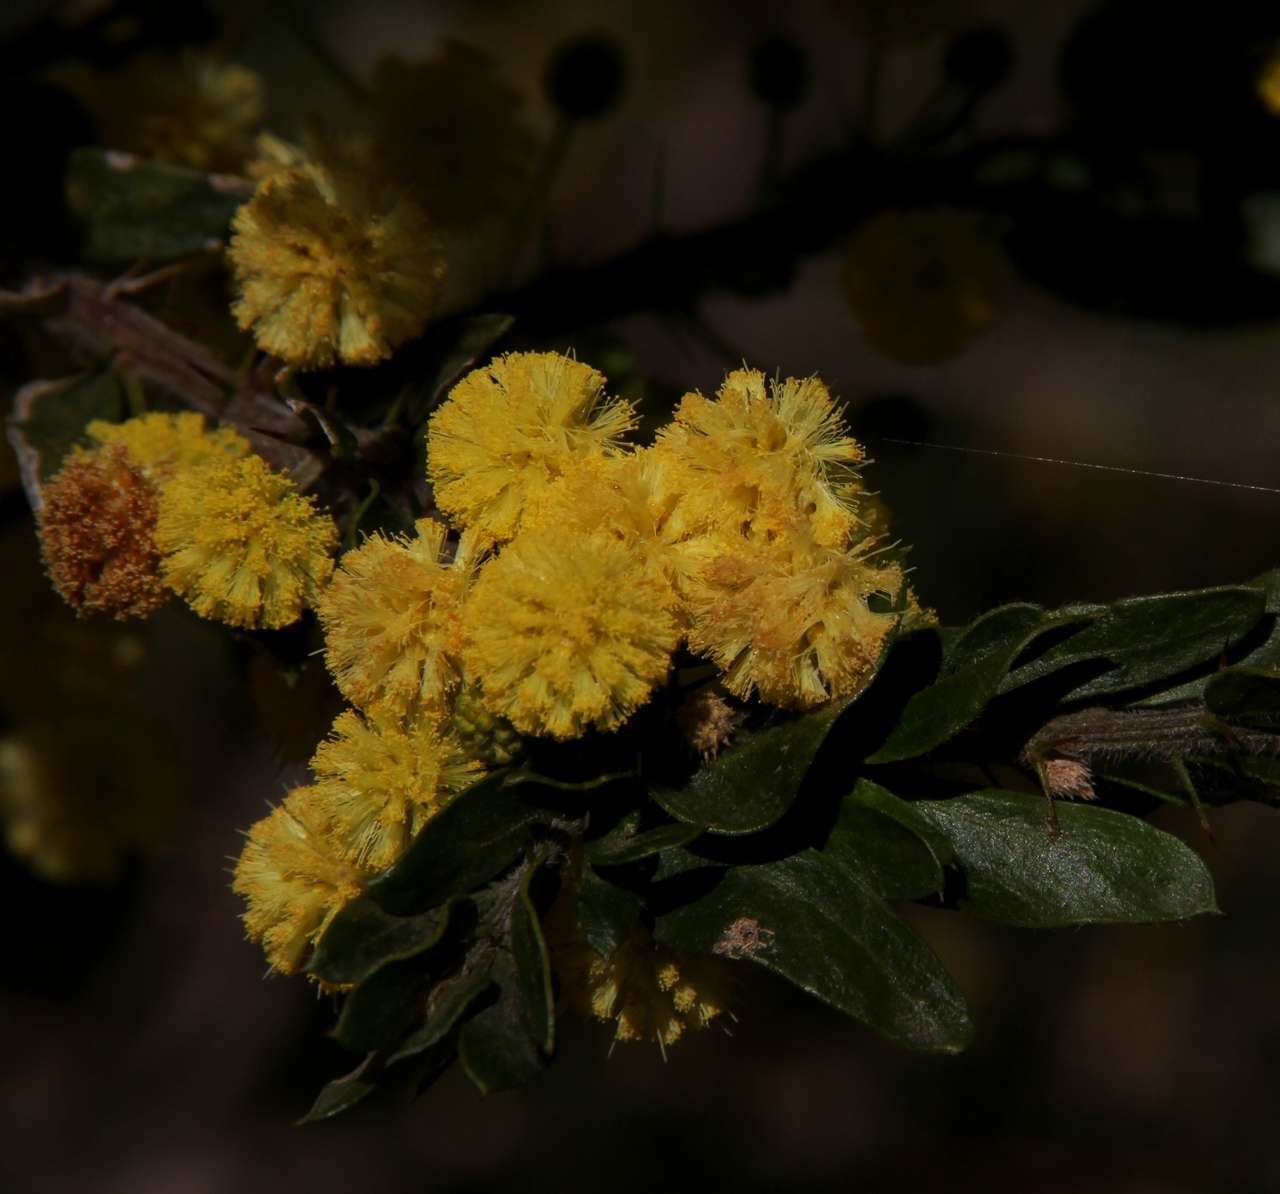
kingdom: Plantae
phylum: Tracheophyta
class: Magnoliopsida
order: Fabales
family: Fabaceae
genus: Acacia
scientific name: Acacia paradoxa
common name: Paradox acacia
